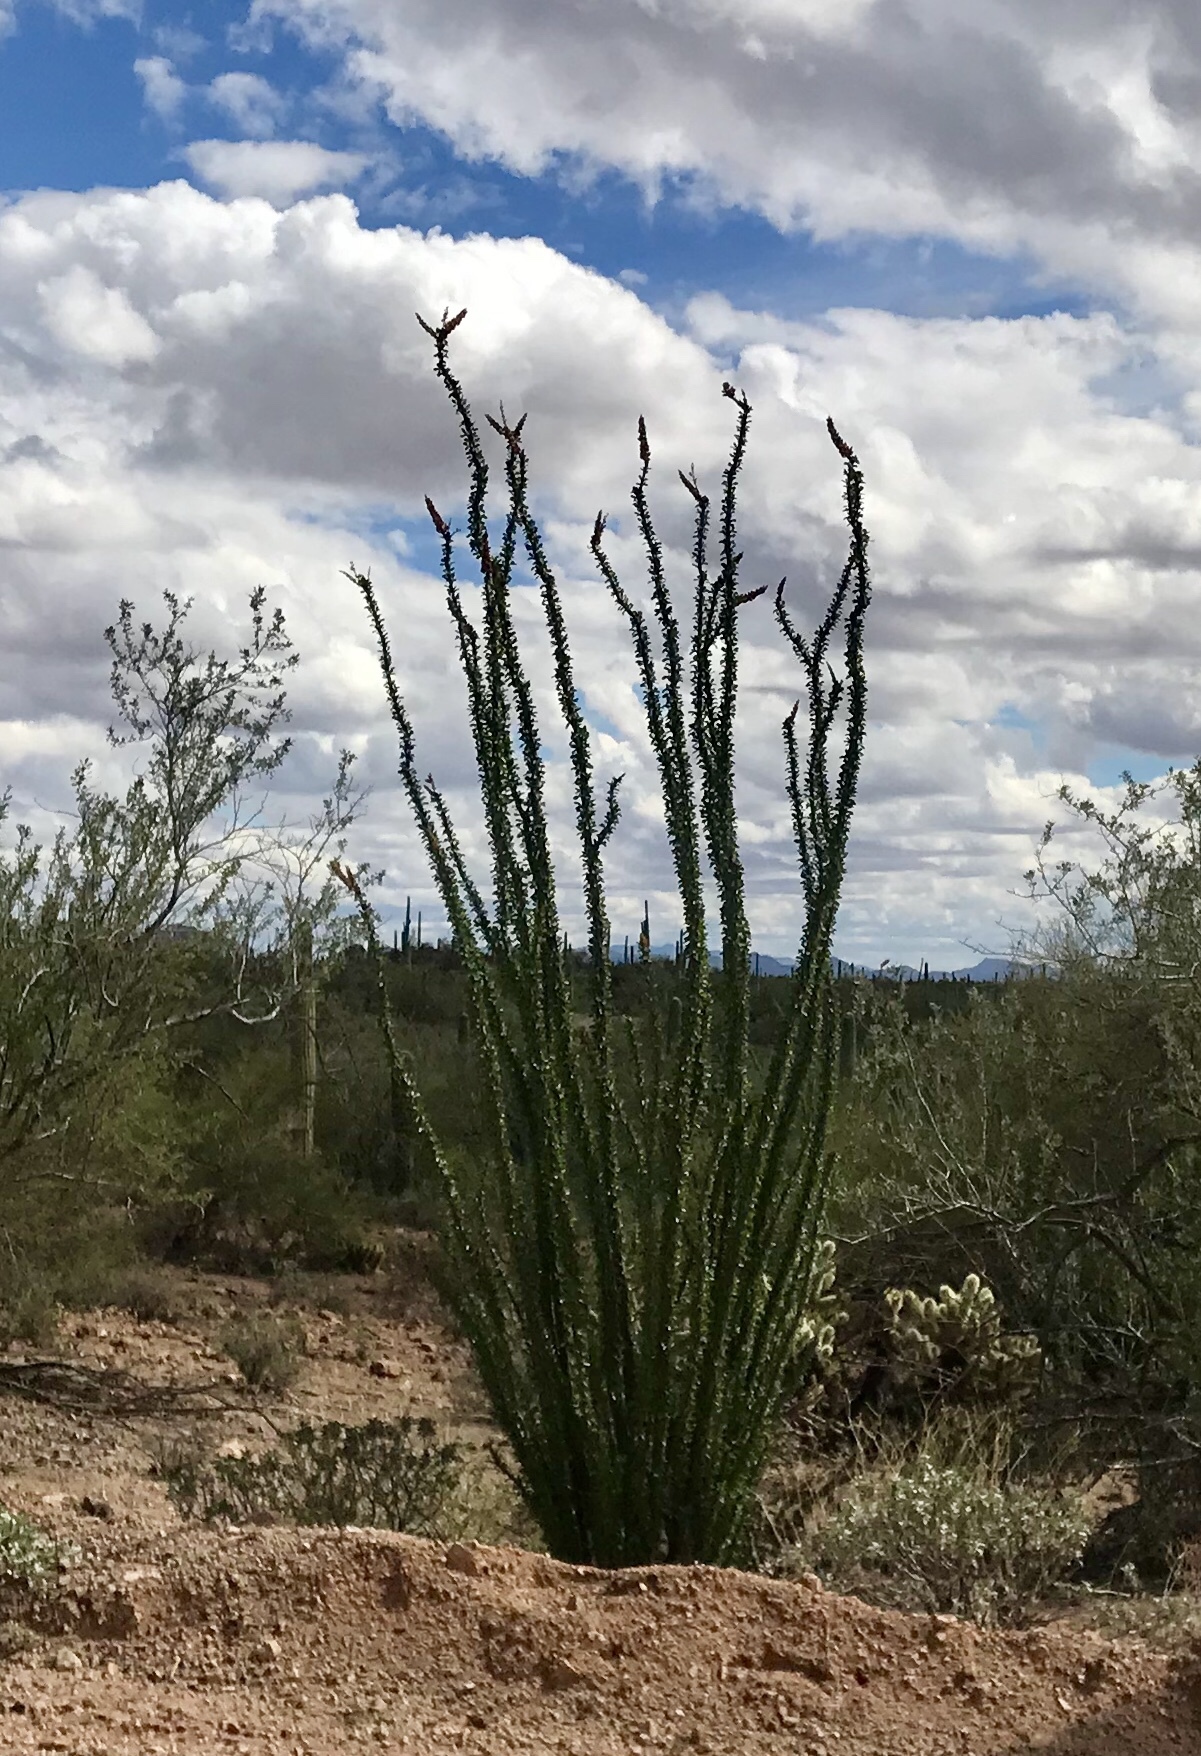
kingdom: Plantae
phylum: Tracheophyta
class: Magnoliopsida
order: Ericales
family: Fouquieriaceae
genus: Fouquieria
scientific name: Fouquieria splendens
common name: Vine-cactus
